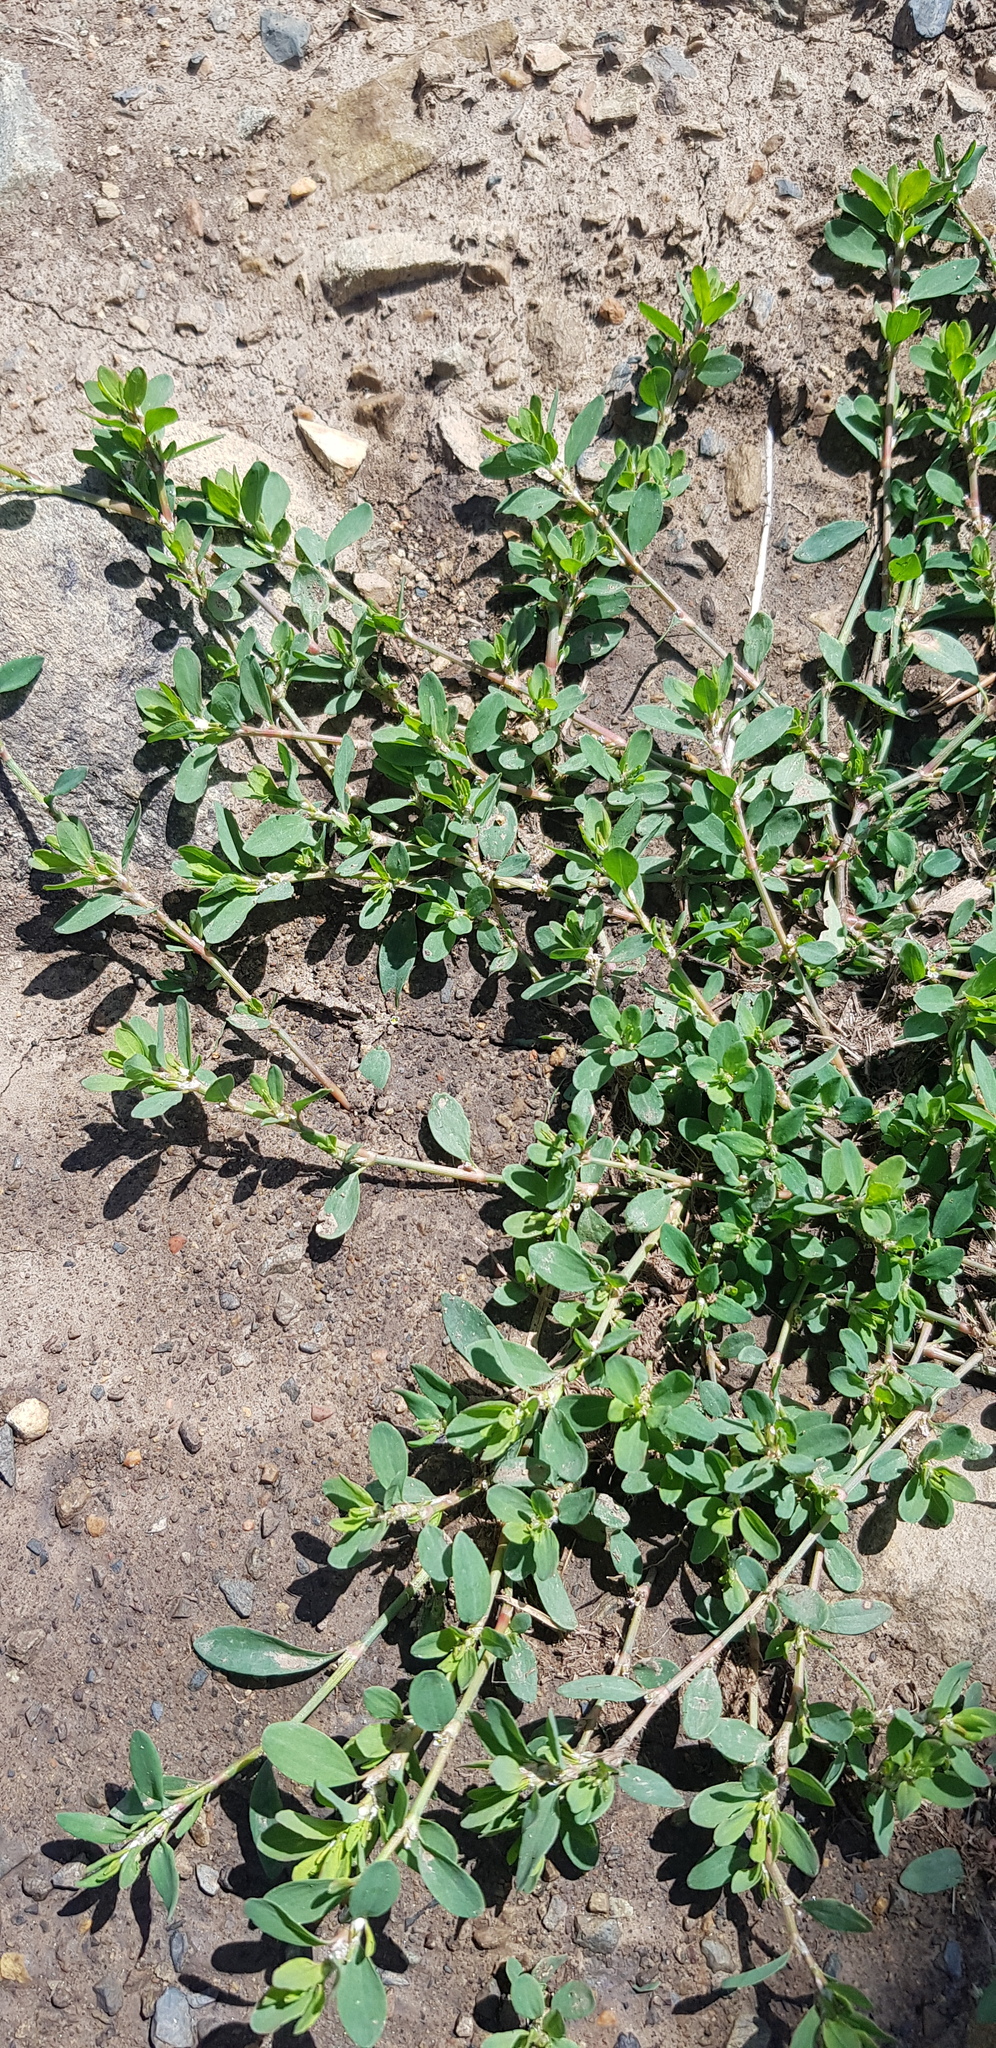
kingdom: Plantae
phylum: Tracheophyta
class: Magnoliopsida
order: Caryophyllales
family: Polygonaceae
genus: Polygonum
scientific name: Polygonum aviculare
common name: Prostrate knotweed
